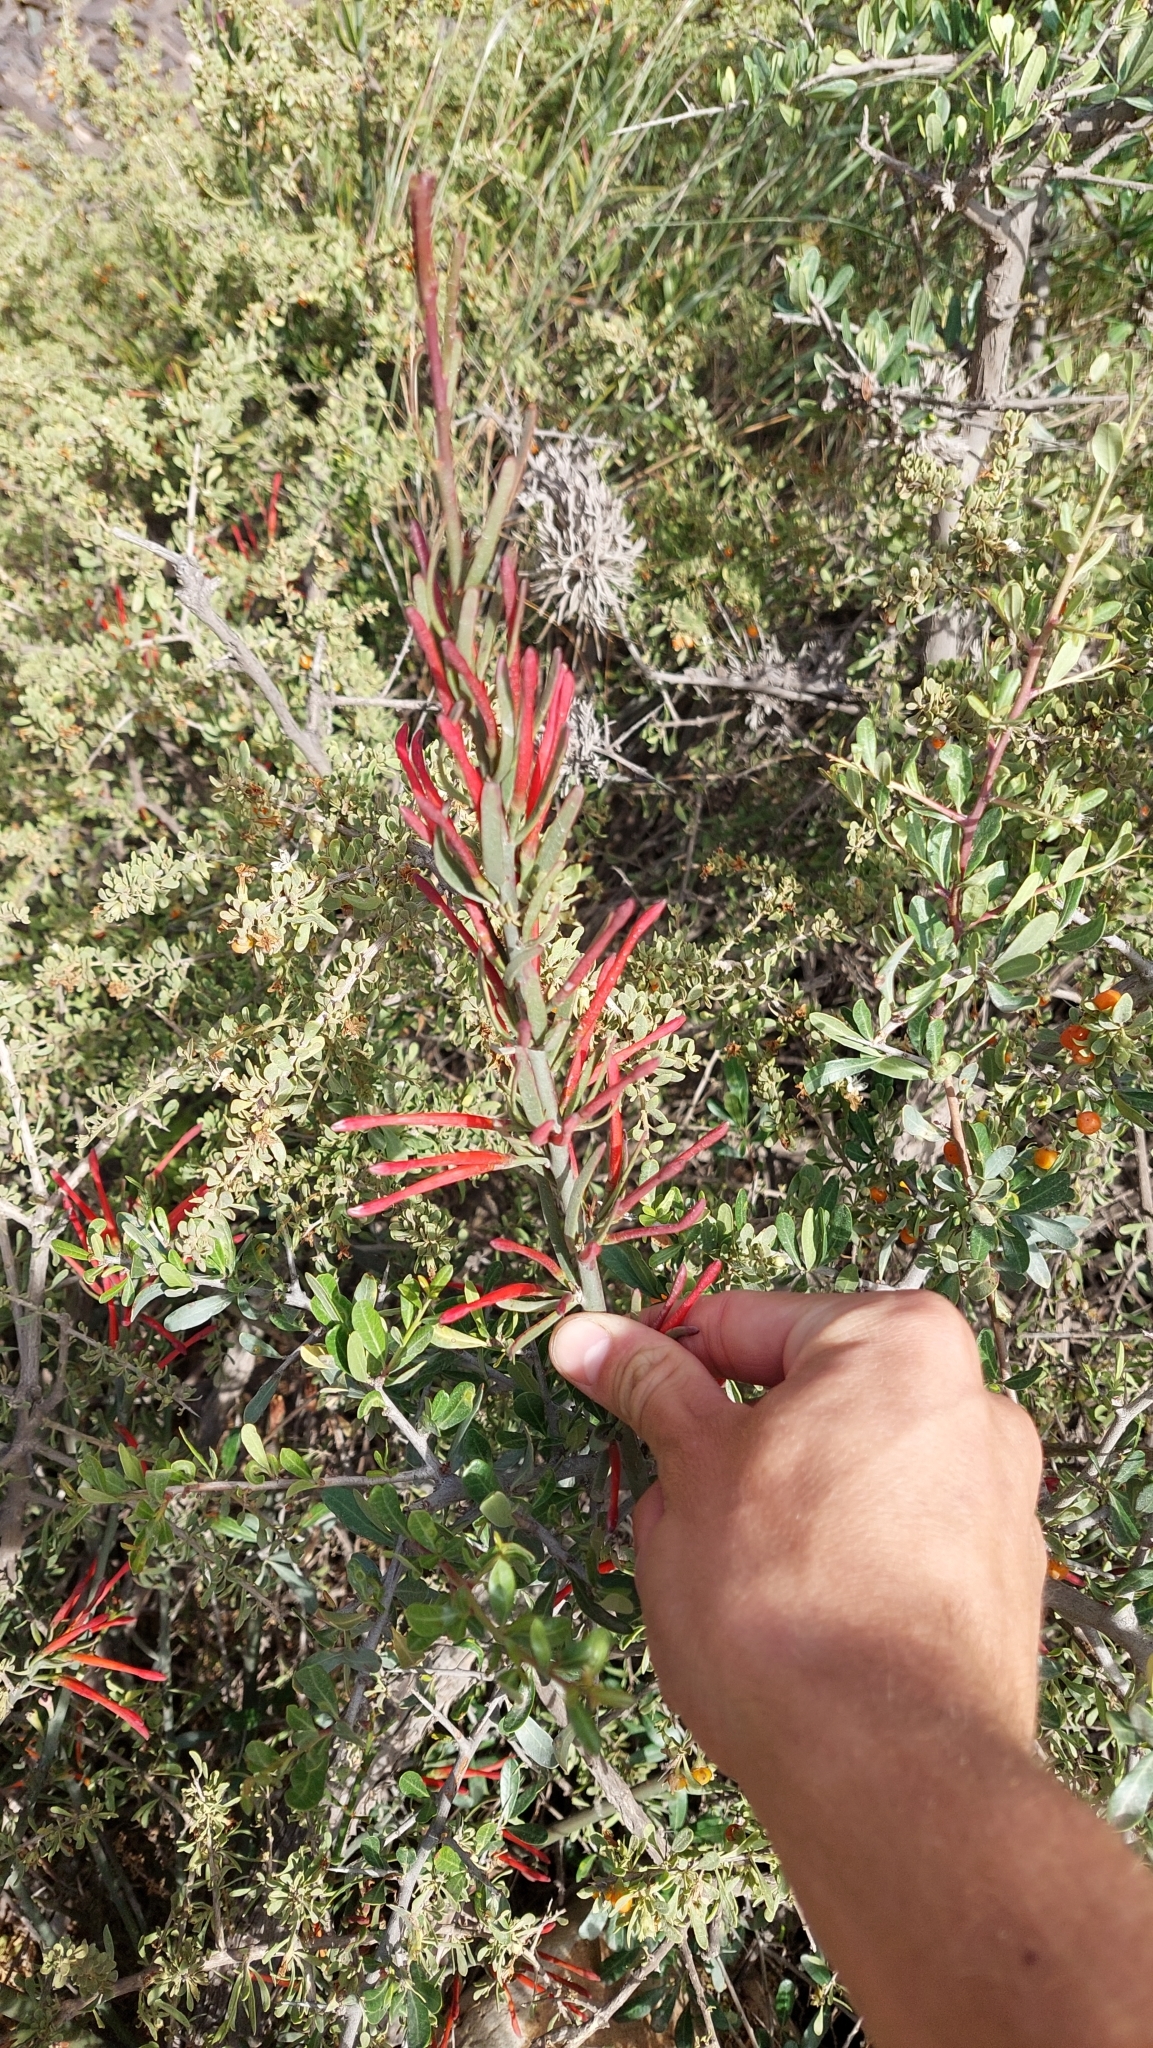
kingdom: Plantae
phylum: Tracheophyta
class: Magnoliopsida
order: Santalales
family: Loranthaceae
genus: Ligaria
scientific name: Ligaria cuneifolia
